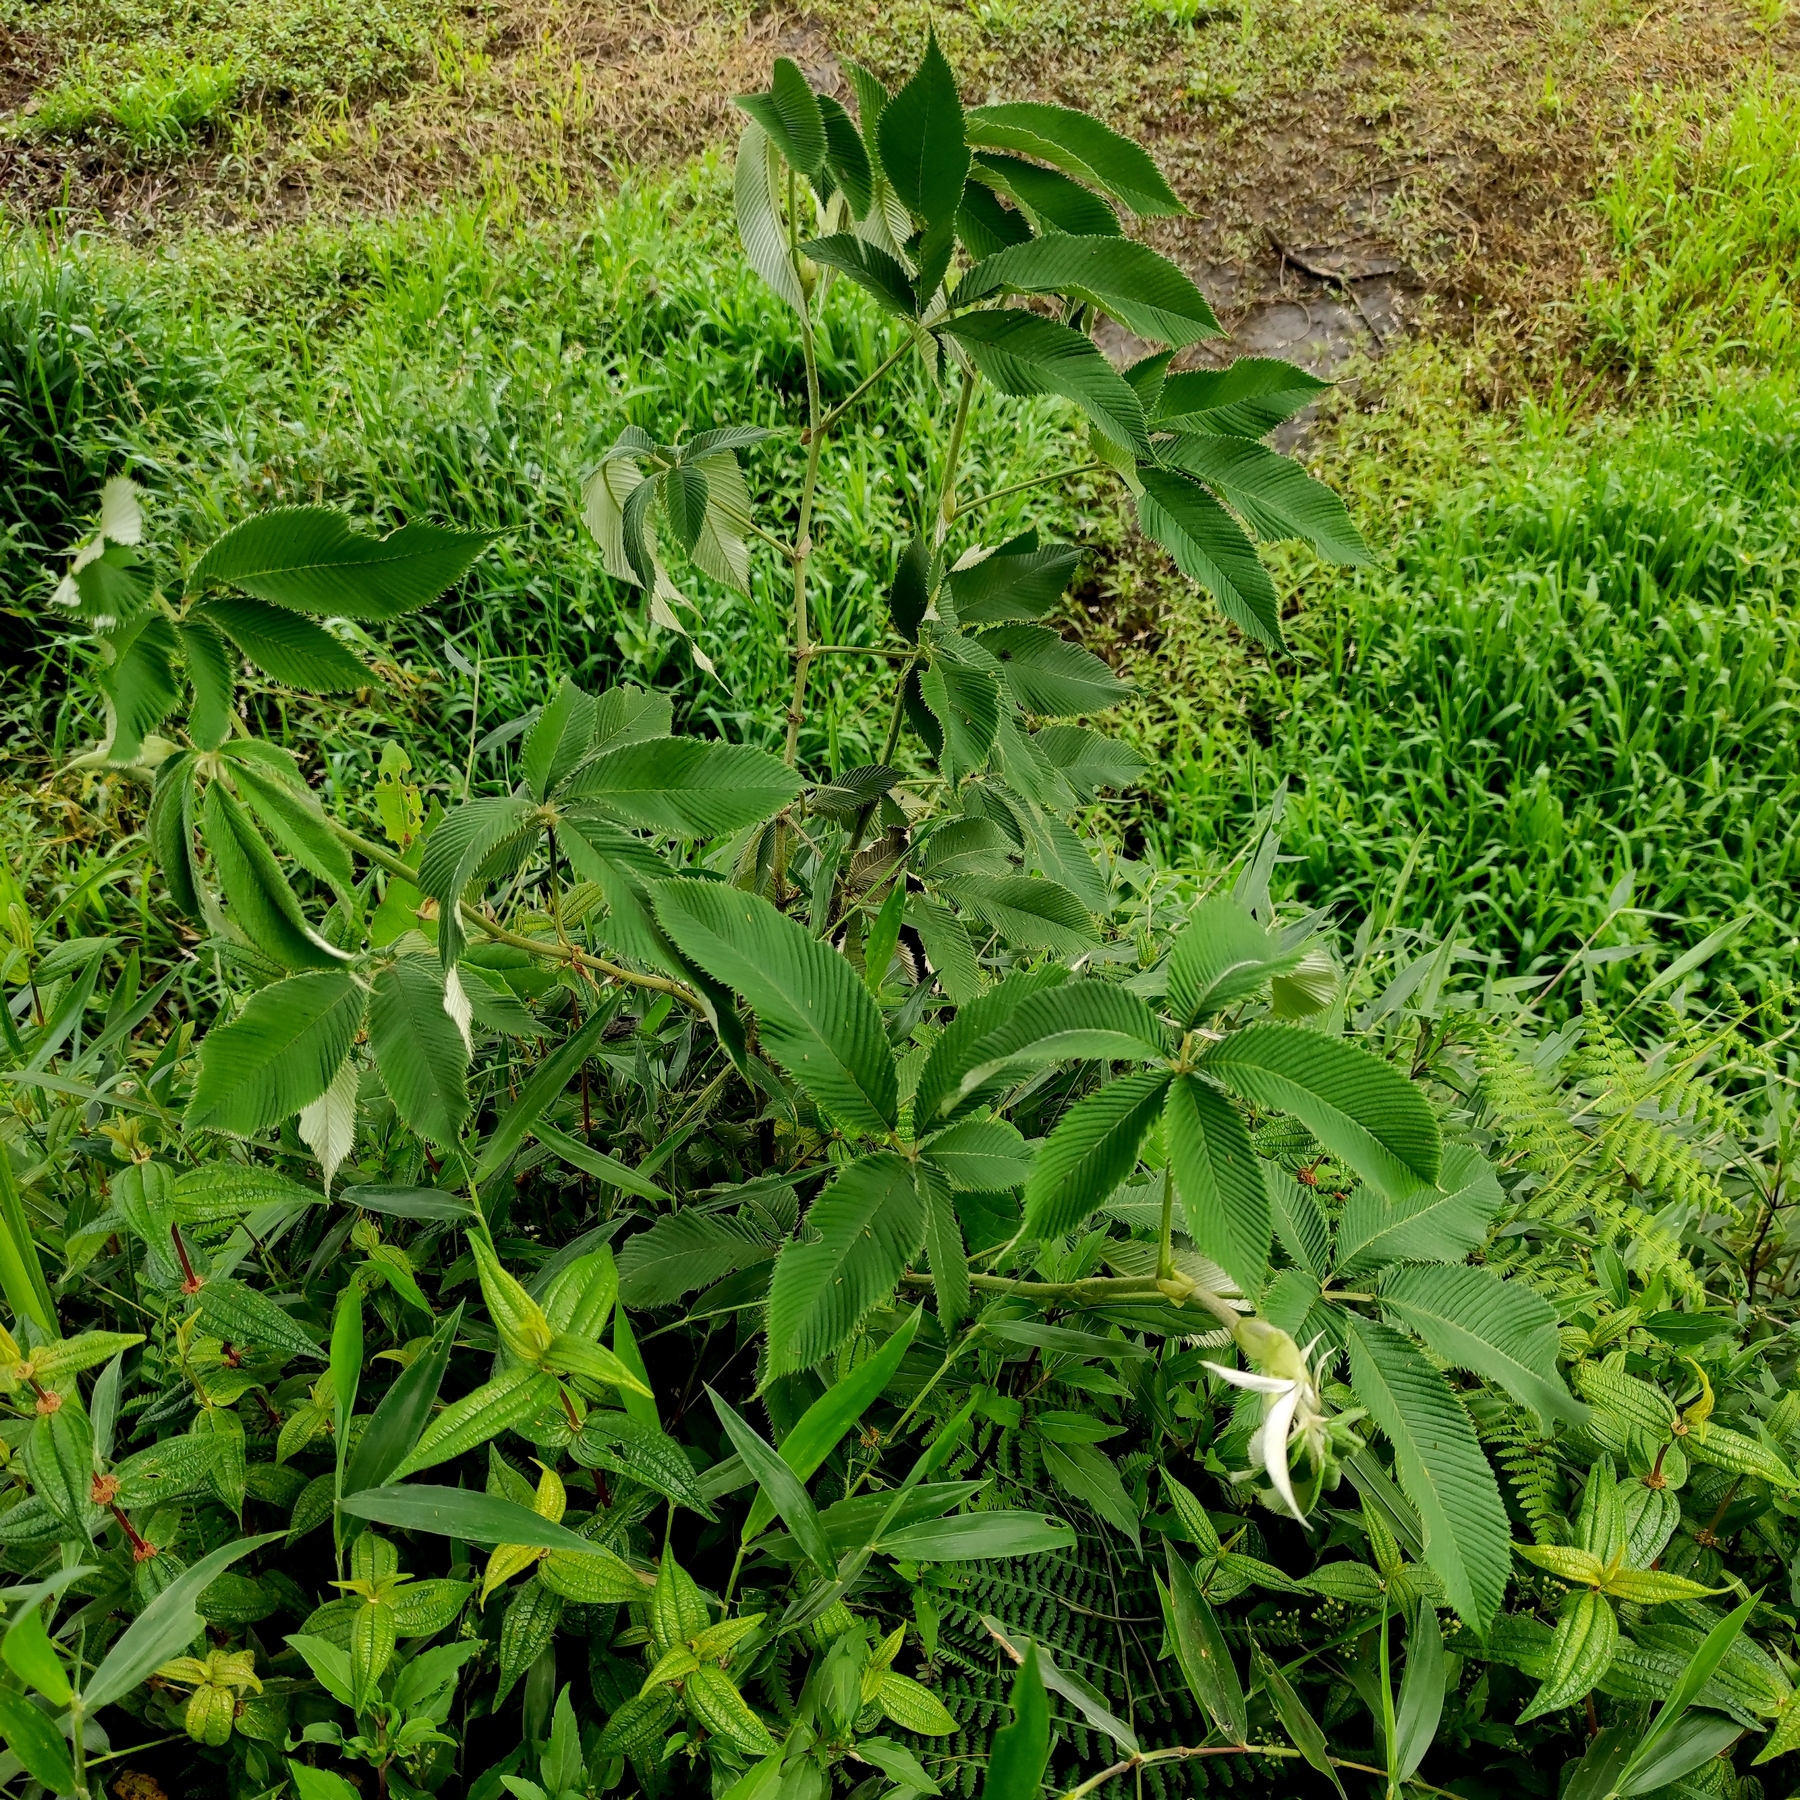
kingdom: Plantae
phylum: Tracheophyta
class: Magnoliopsida
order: Rosales
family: Rosaceae
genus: Rubus
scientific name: Rubus lineatus
